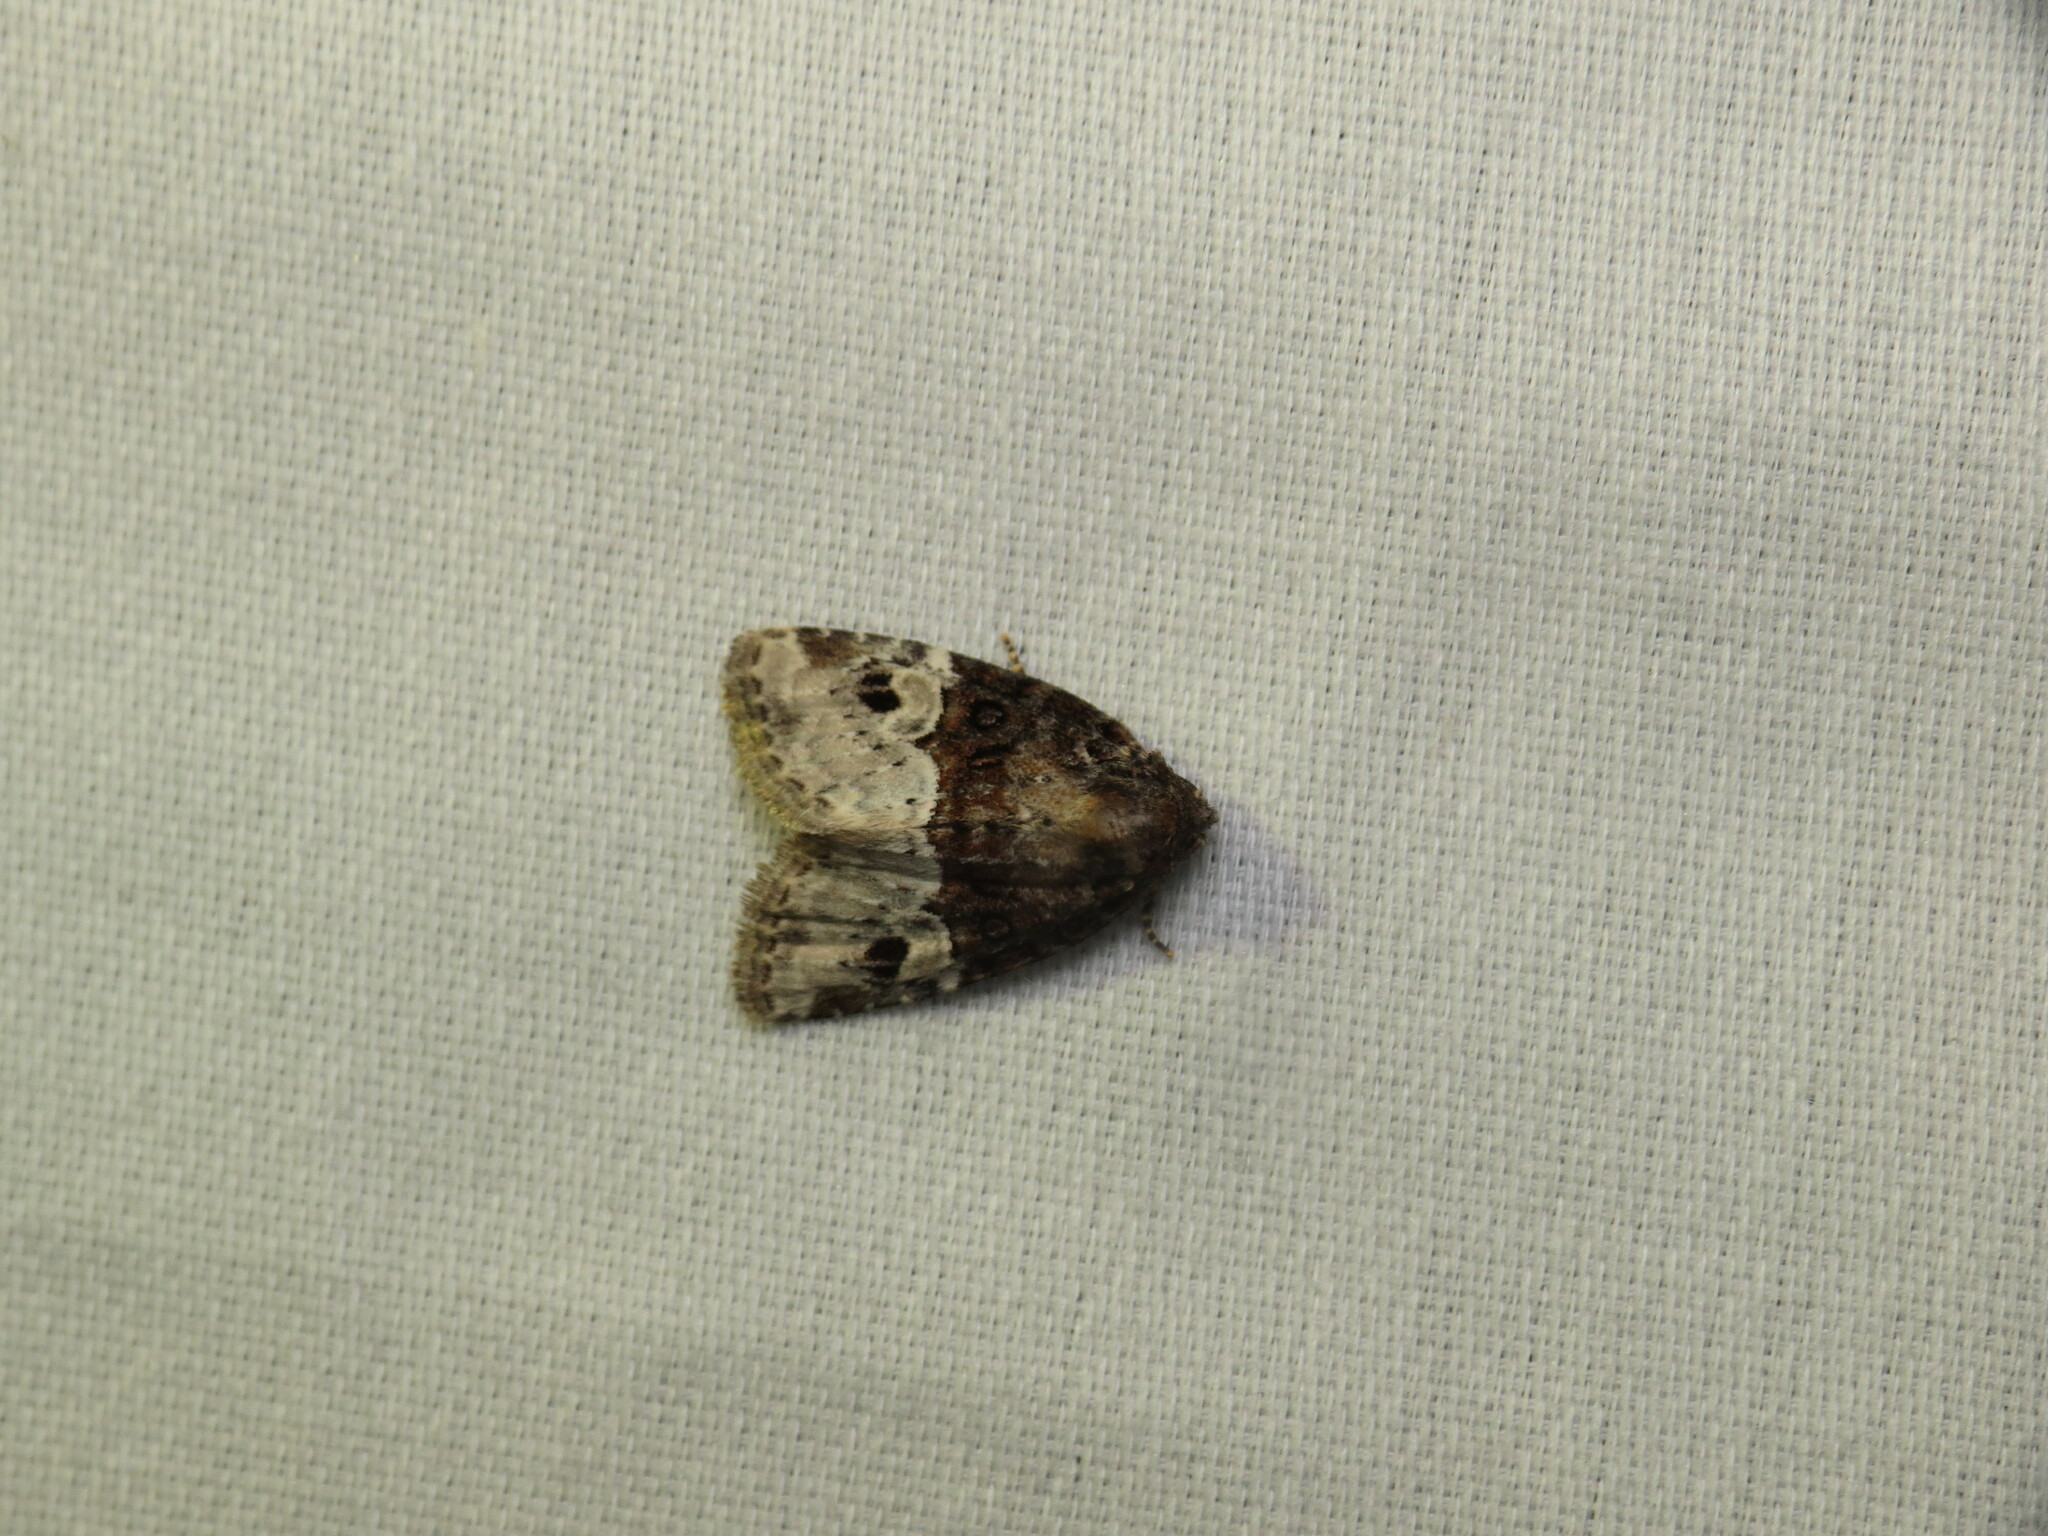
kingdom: Animalia
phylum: Arthropoda
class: Insecta
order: Lepidoptera
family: Noctuidae
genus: Neoligia
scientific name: Neoligia crytora
